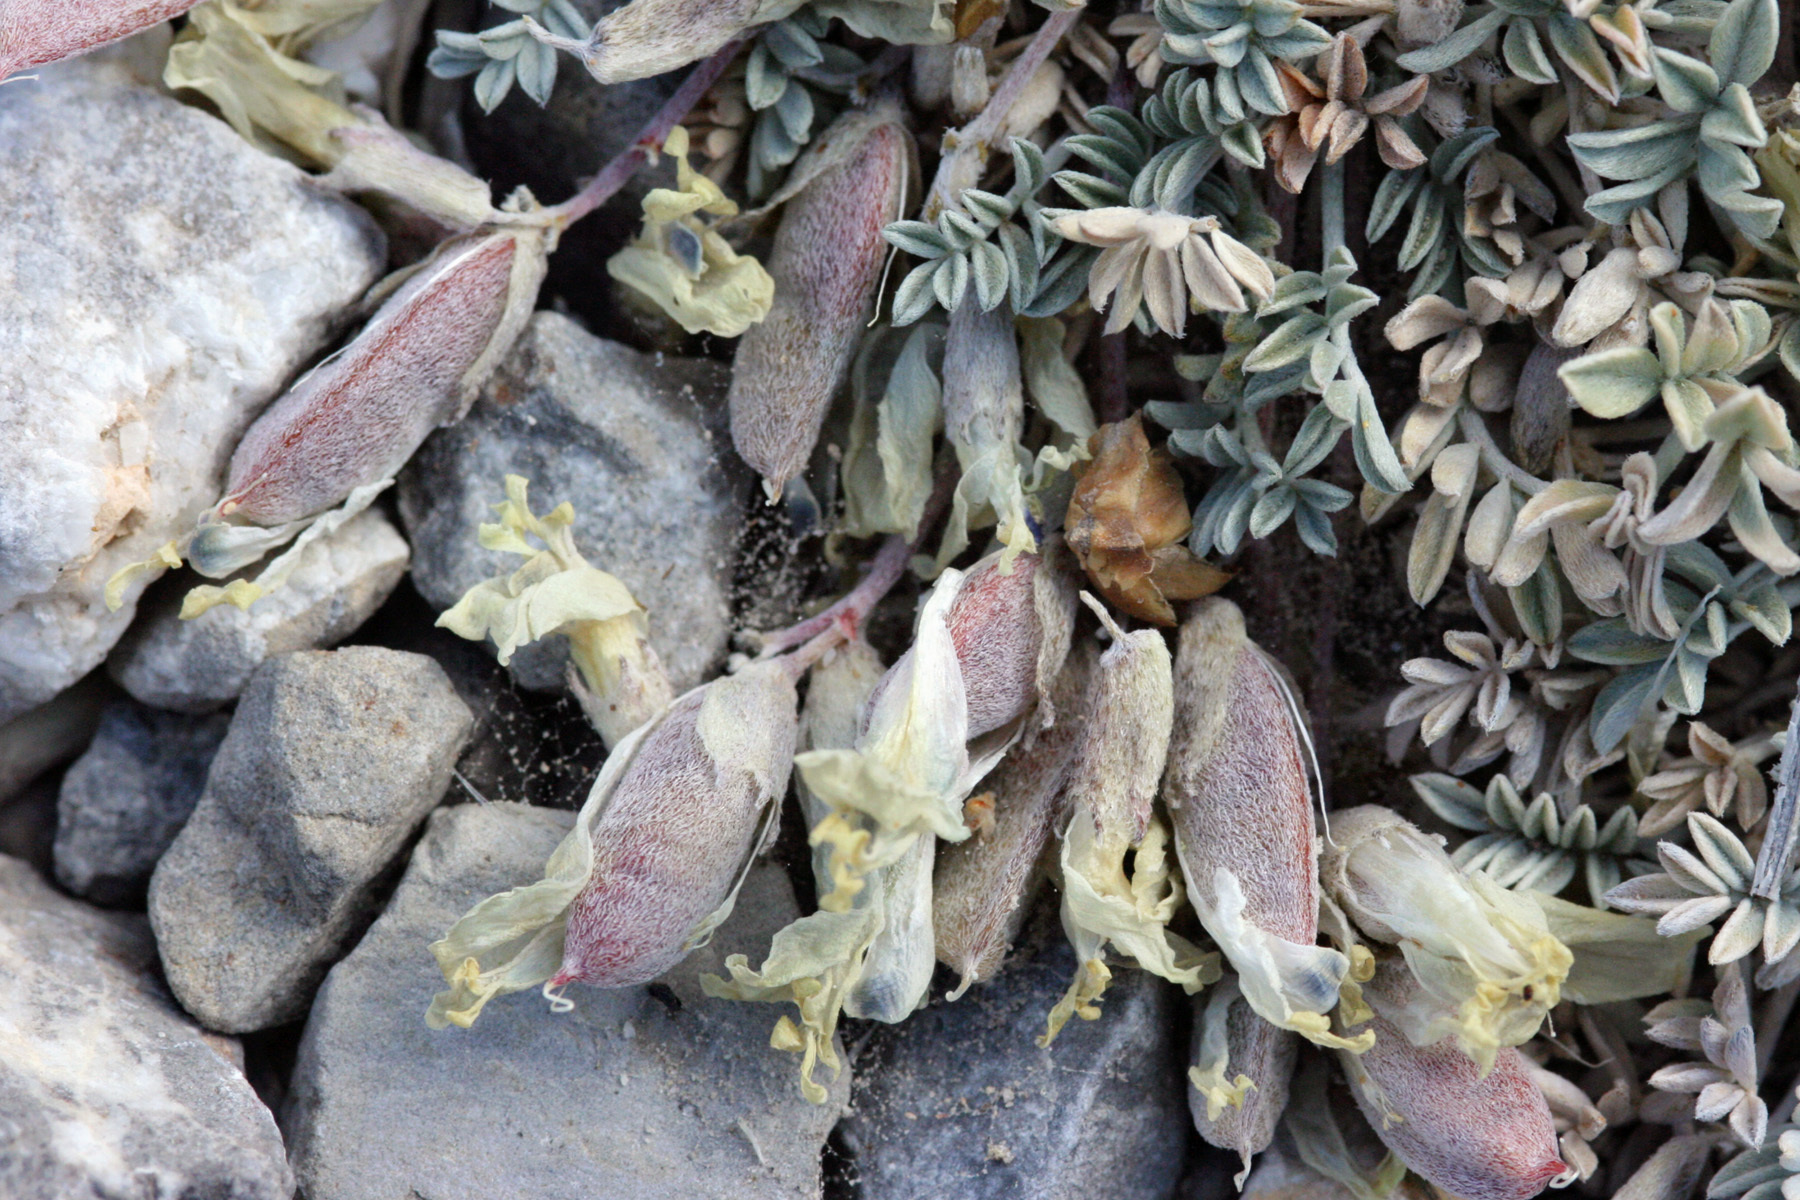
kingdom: Plantae
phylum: Tracheophyta
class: Magnoliopsida
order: Fabales
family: Fabaceae
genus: Astragalus
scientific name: Astragalus calycosus
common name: King's milkvetch
